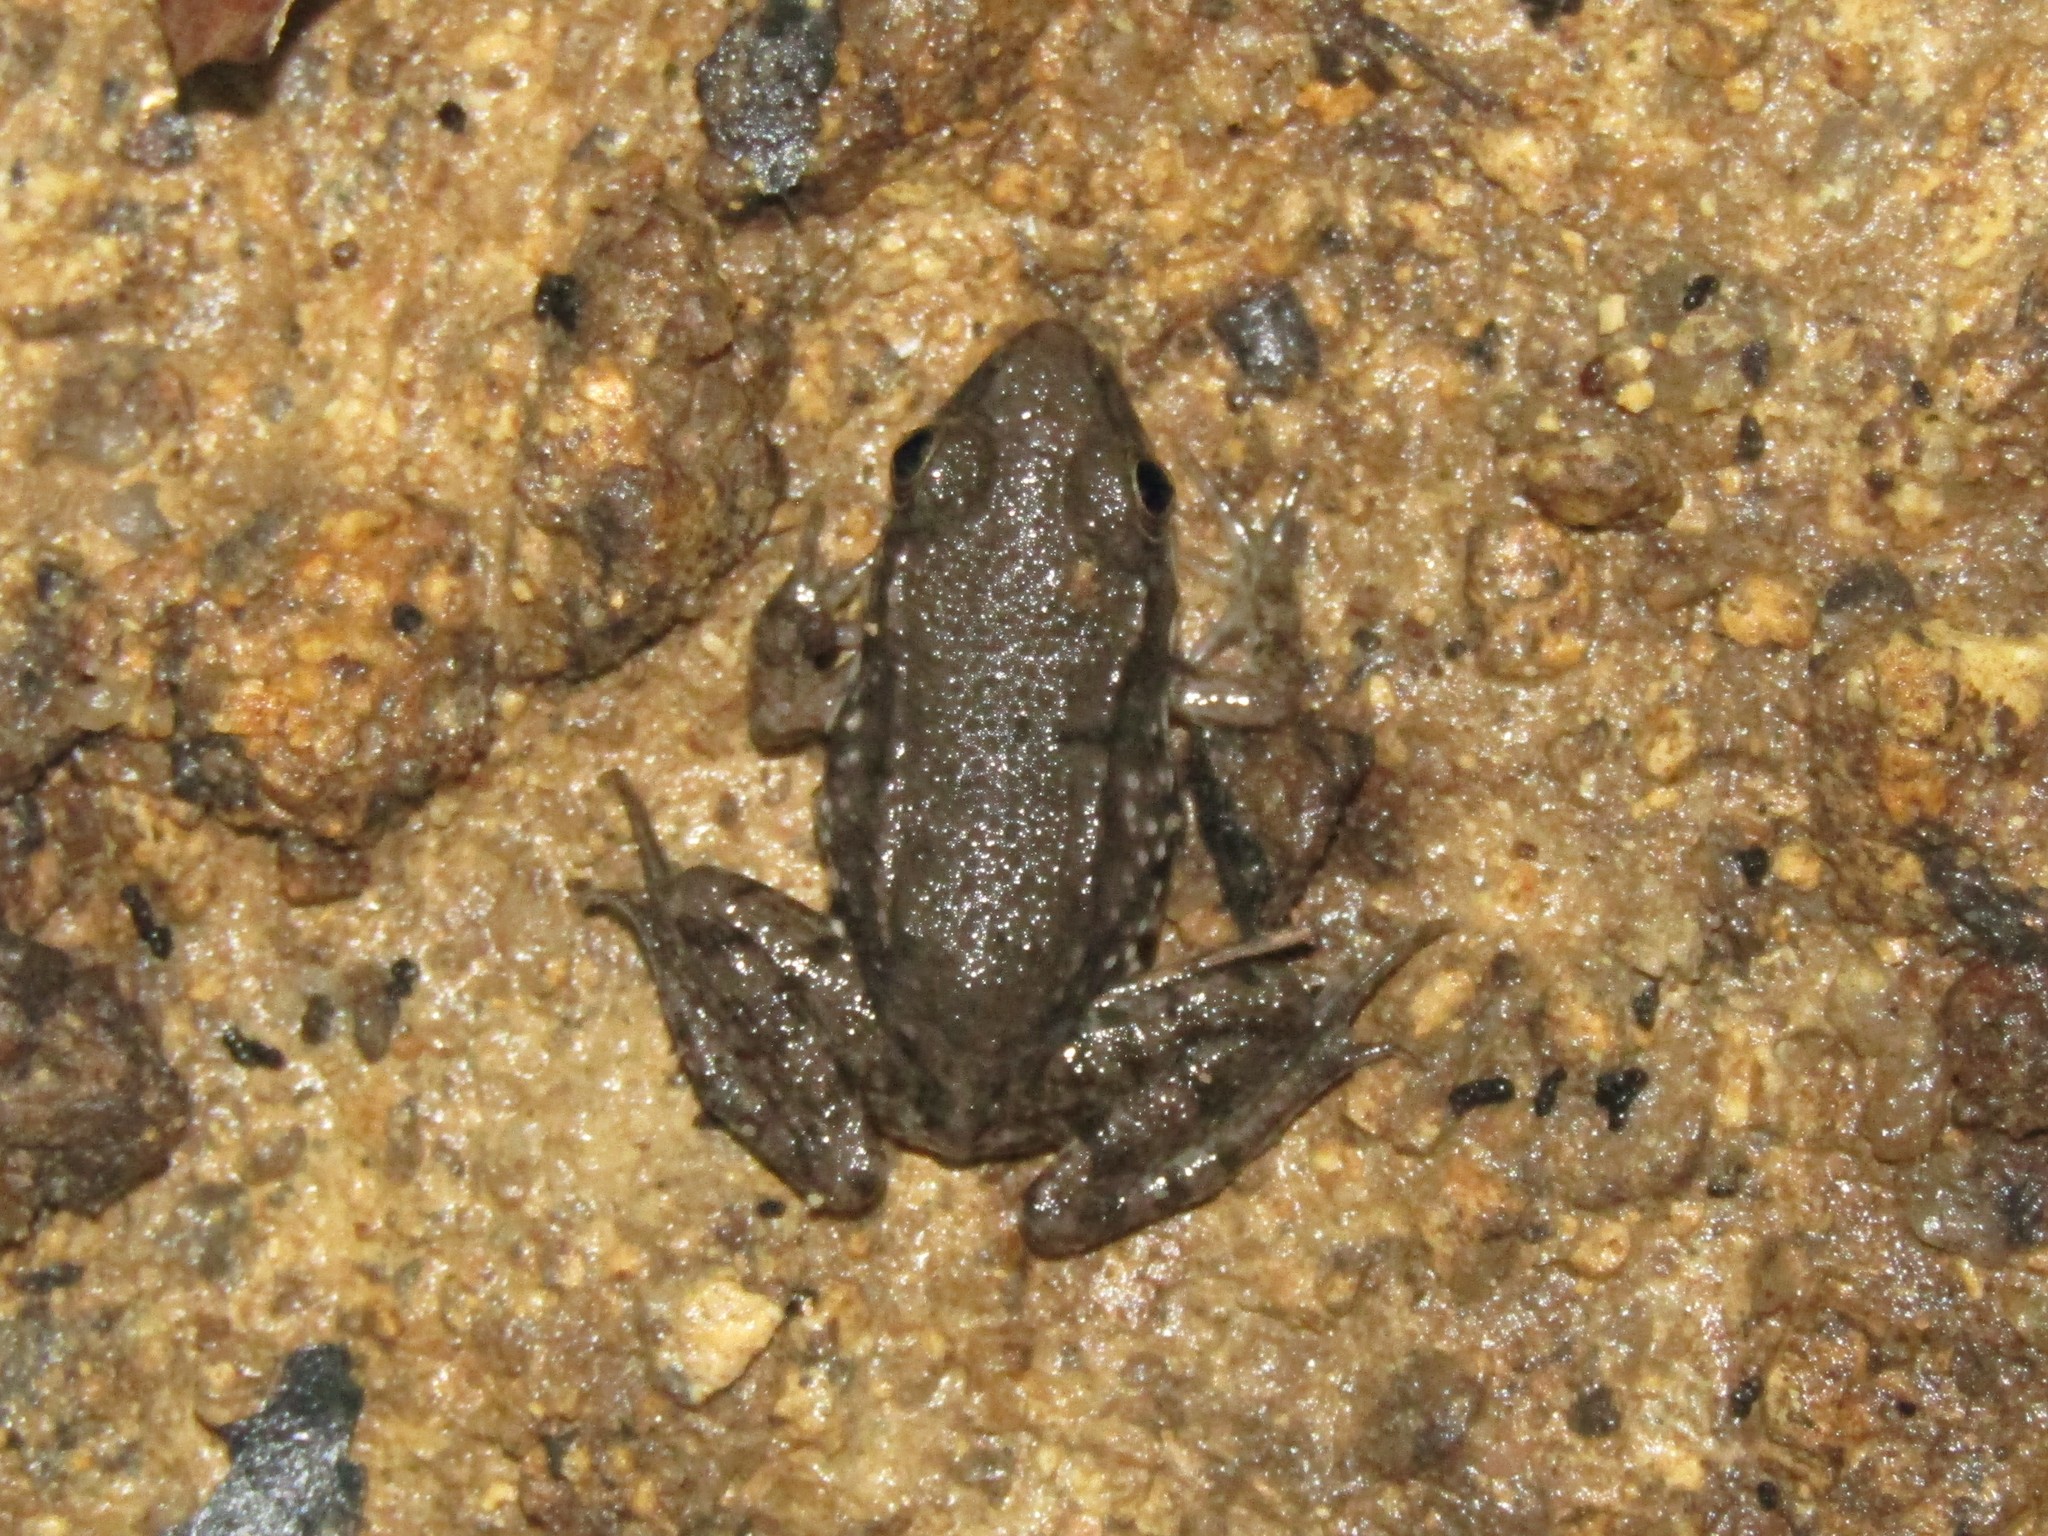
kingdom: Animalia
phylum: Chordata
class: Amphibia
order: Anura
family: Ranidae
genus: Lithobates
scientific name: Lithobates clamitans
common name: Green frog
